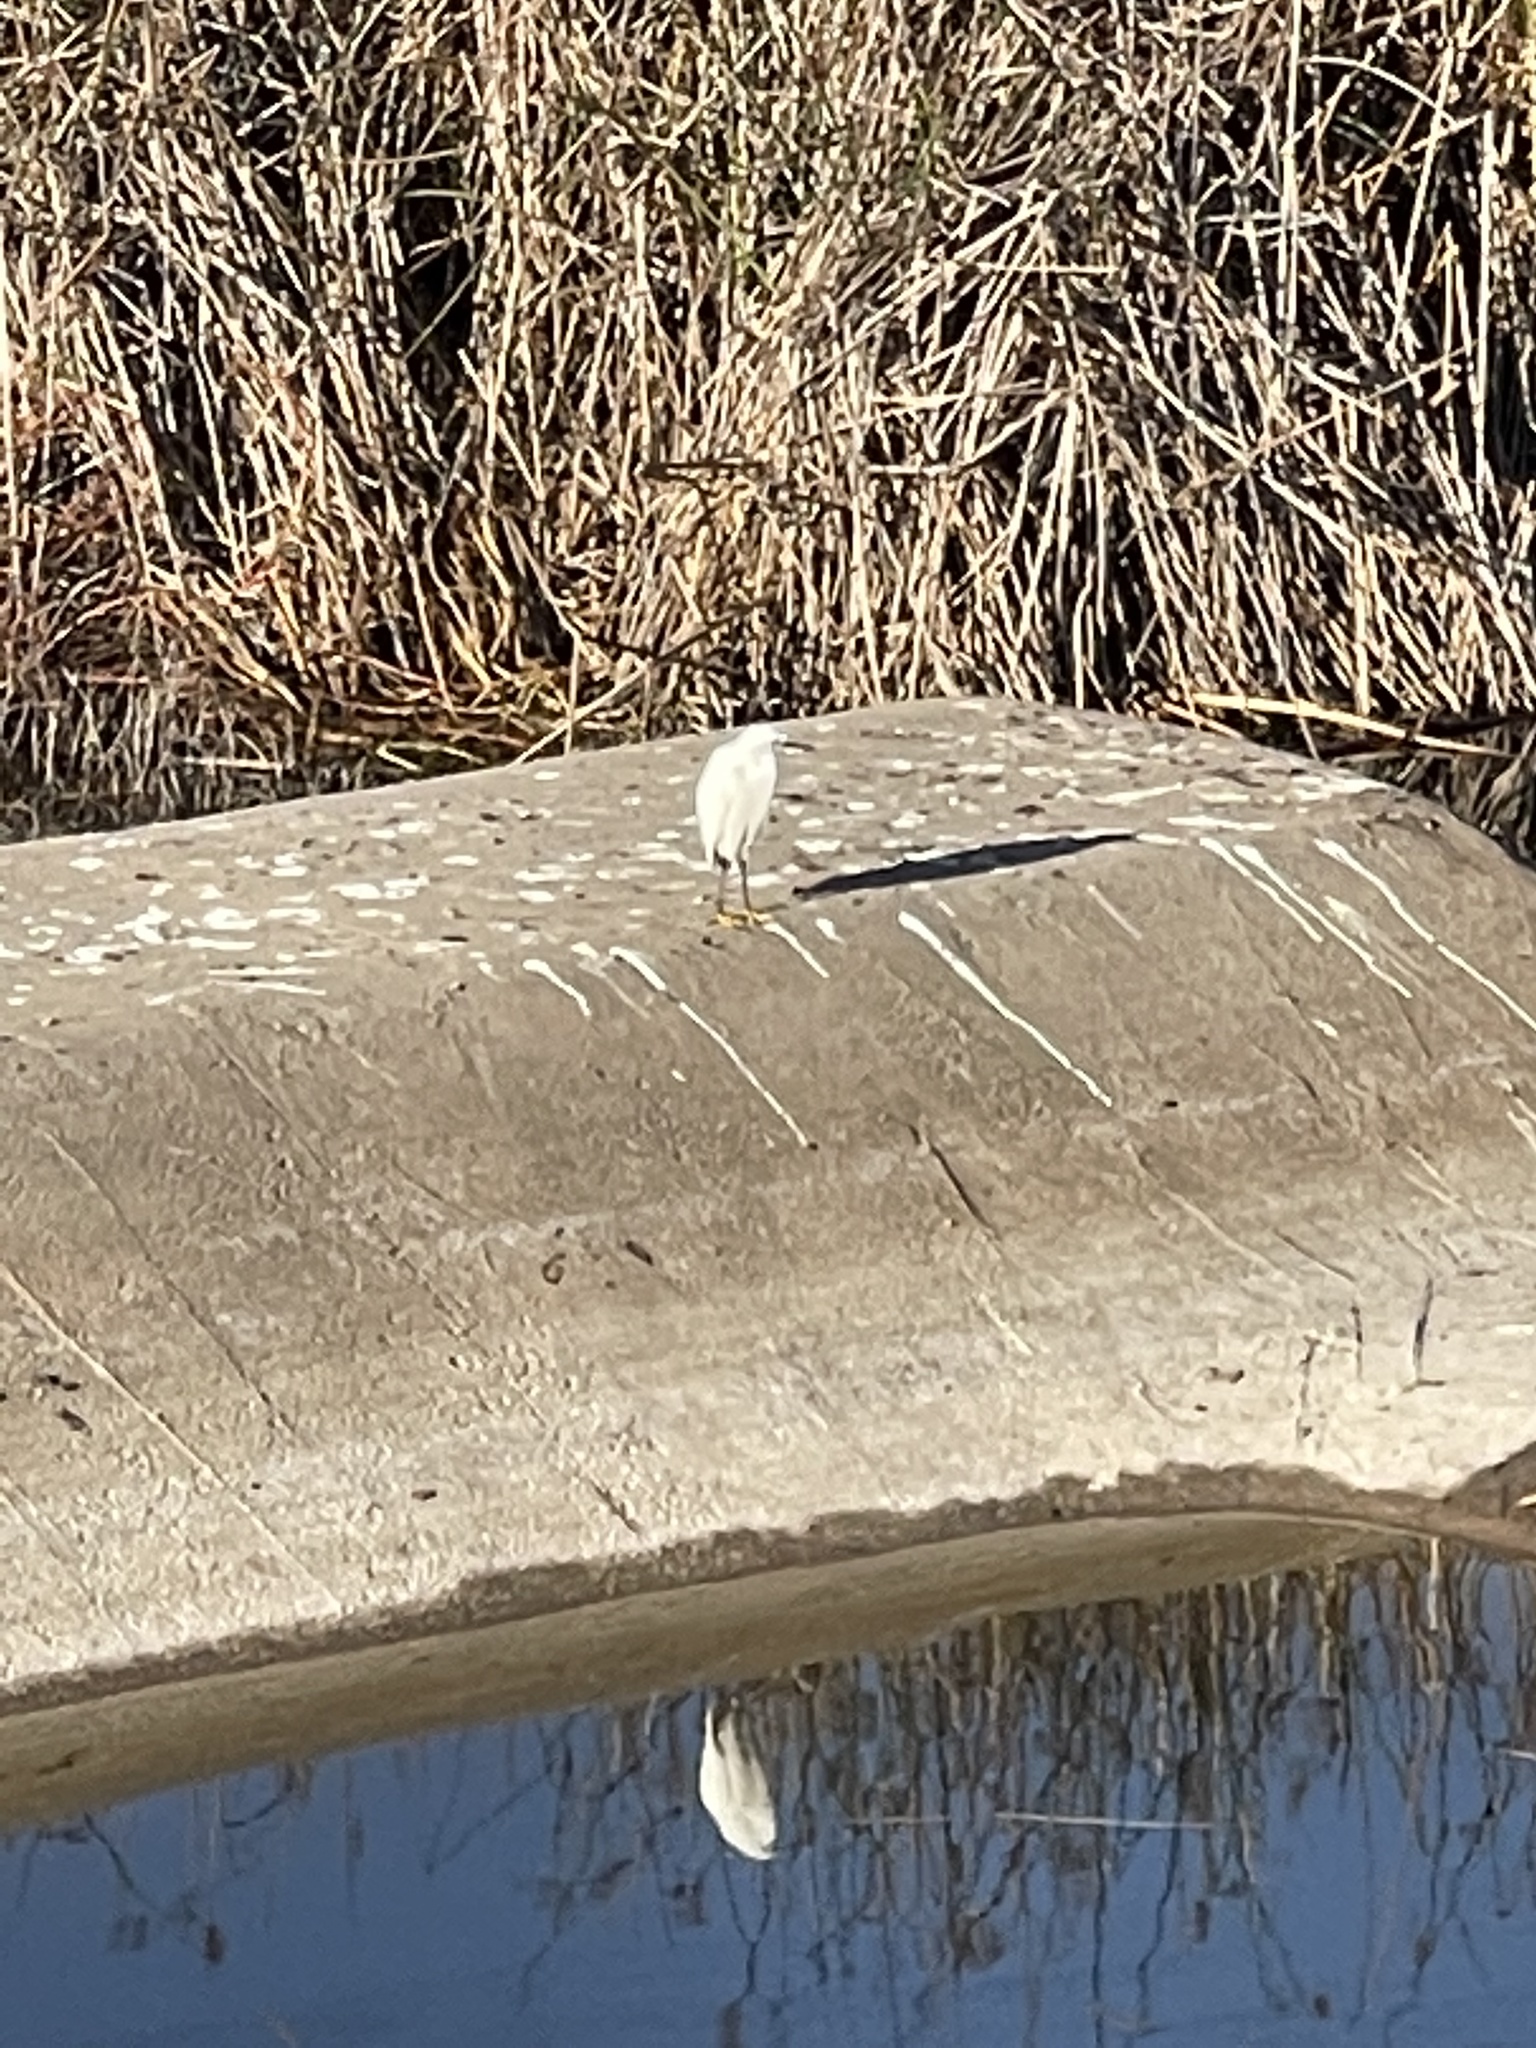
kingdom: Animalia
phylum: Chordata
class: Aves
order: Pelecaniformes
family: Ardeidae
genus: Egretta
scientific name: Egretta thula
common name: Snowy egret
